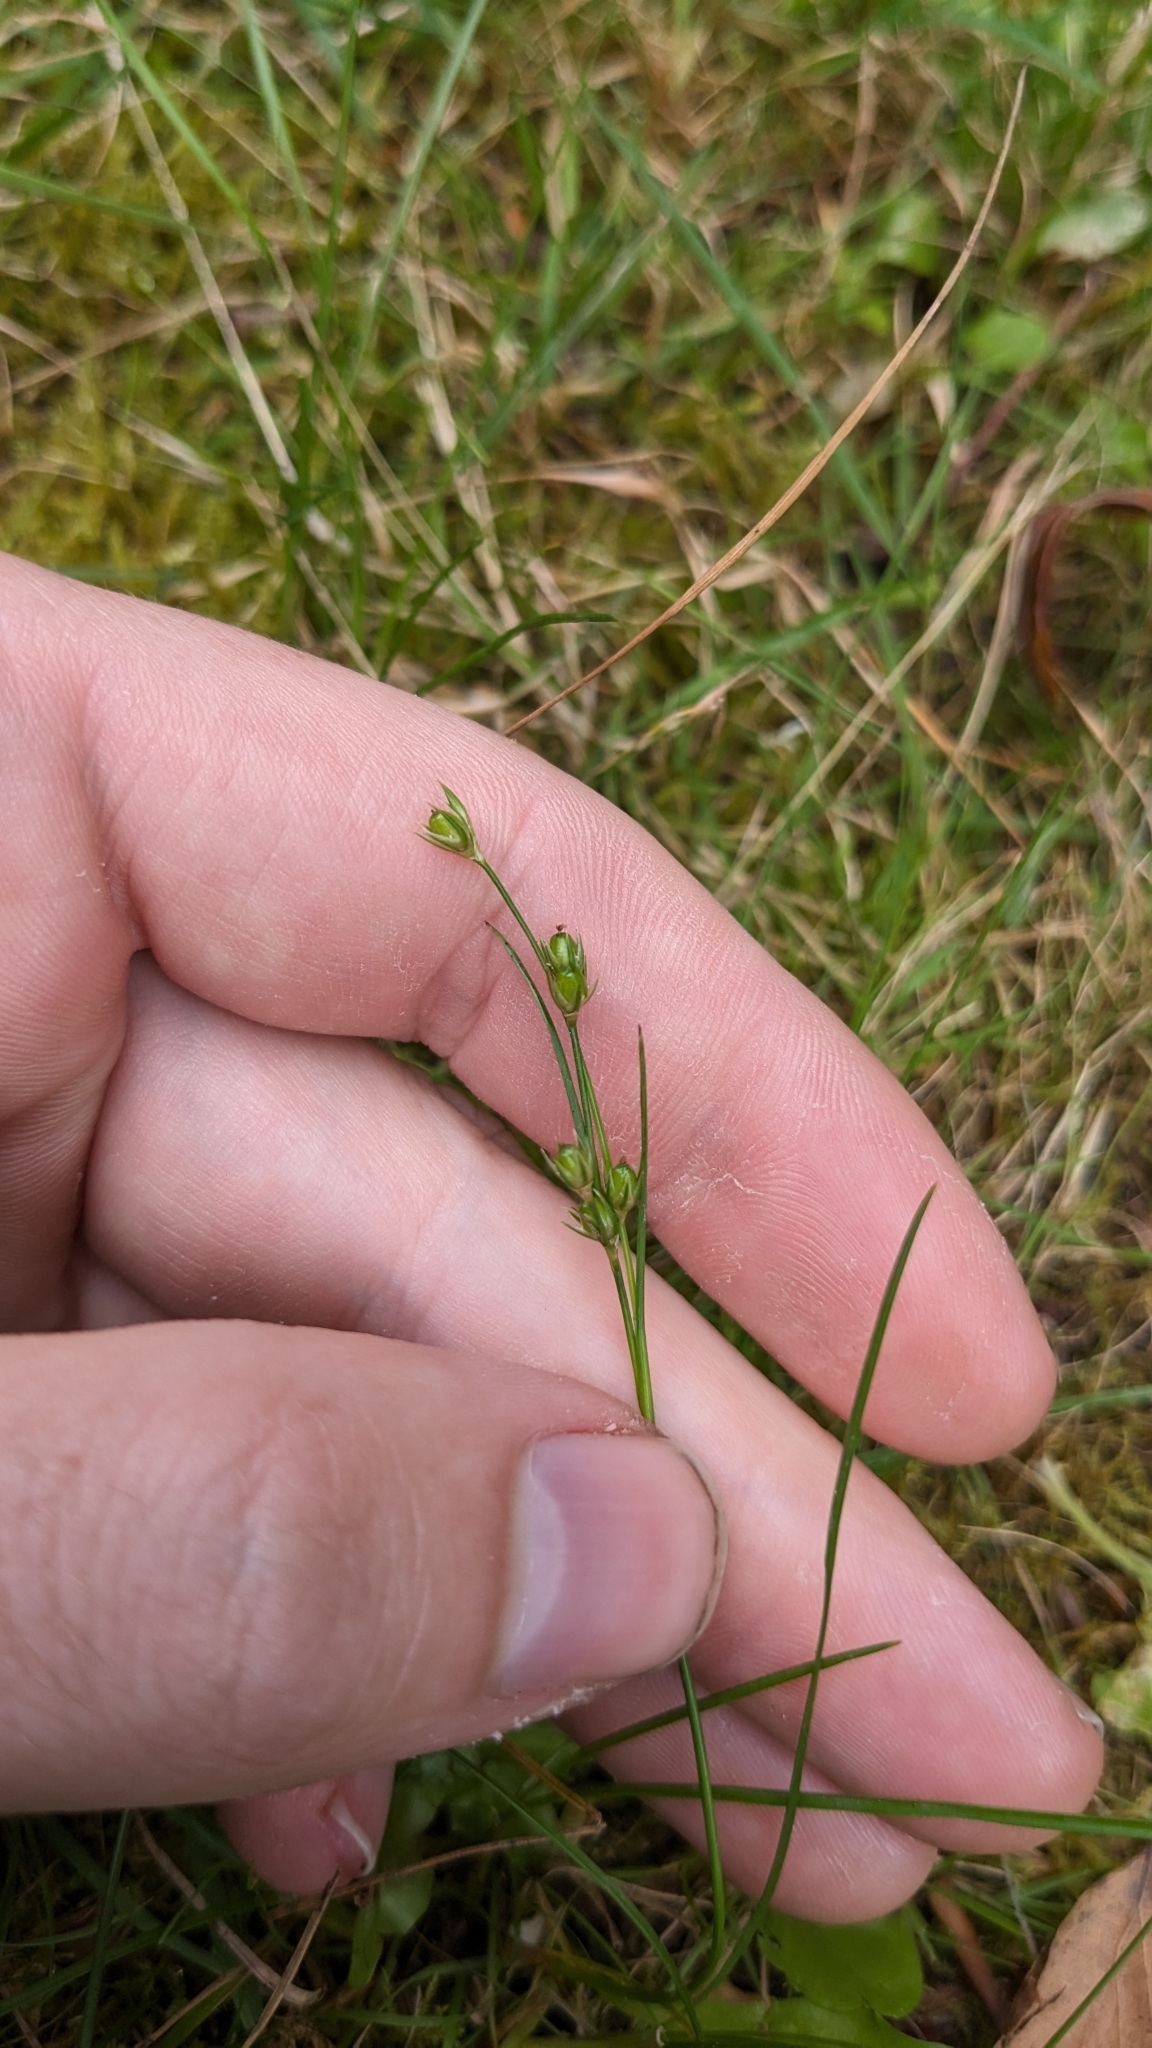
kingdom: Plantae
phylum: Tracheophyta
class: Liliopsida
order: Poales
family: Juncaceae
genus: Juncus
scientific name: Juncus tenuis
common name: Slender rush
